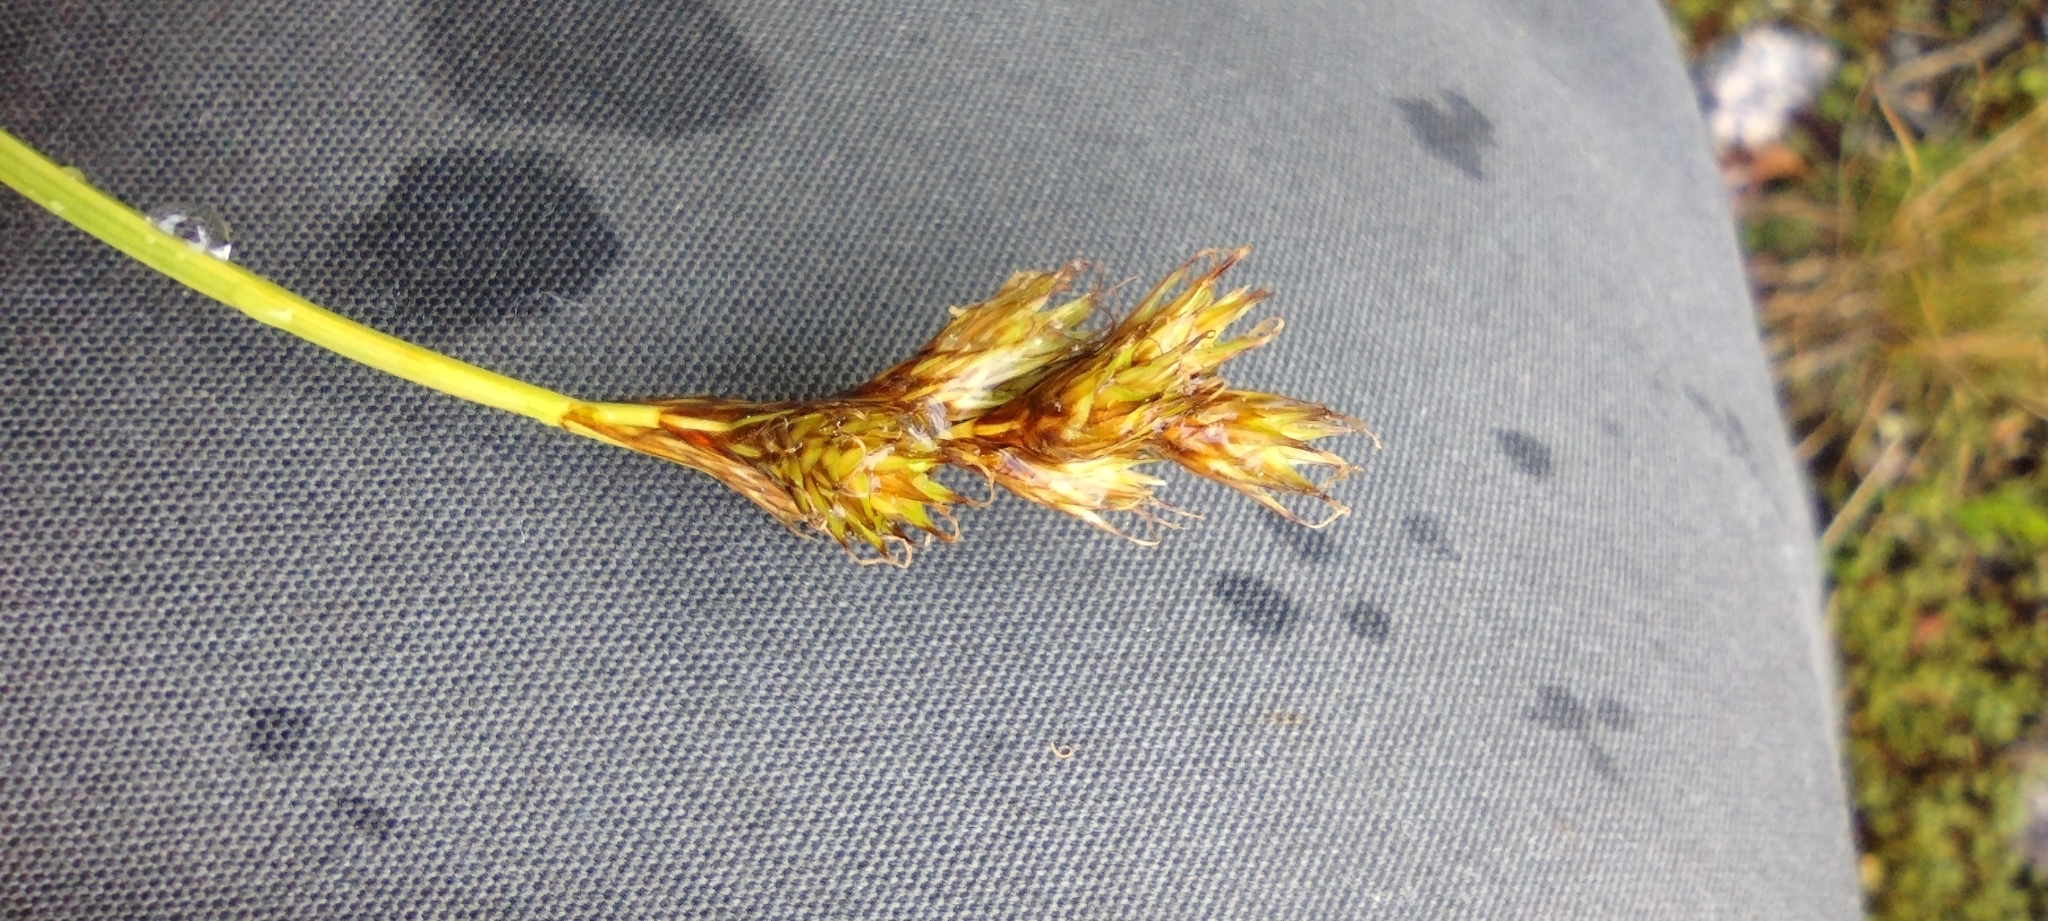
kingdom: Plantae
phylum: Tracheophyta
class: Liliopsida
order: Poales
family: Cyperaceae
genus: Carex
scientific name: Carex leporina
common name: Oval sedge
